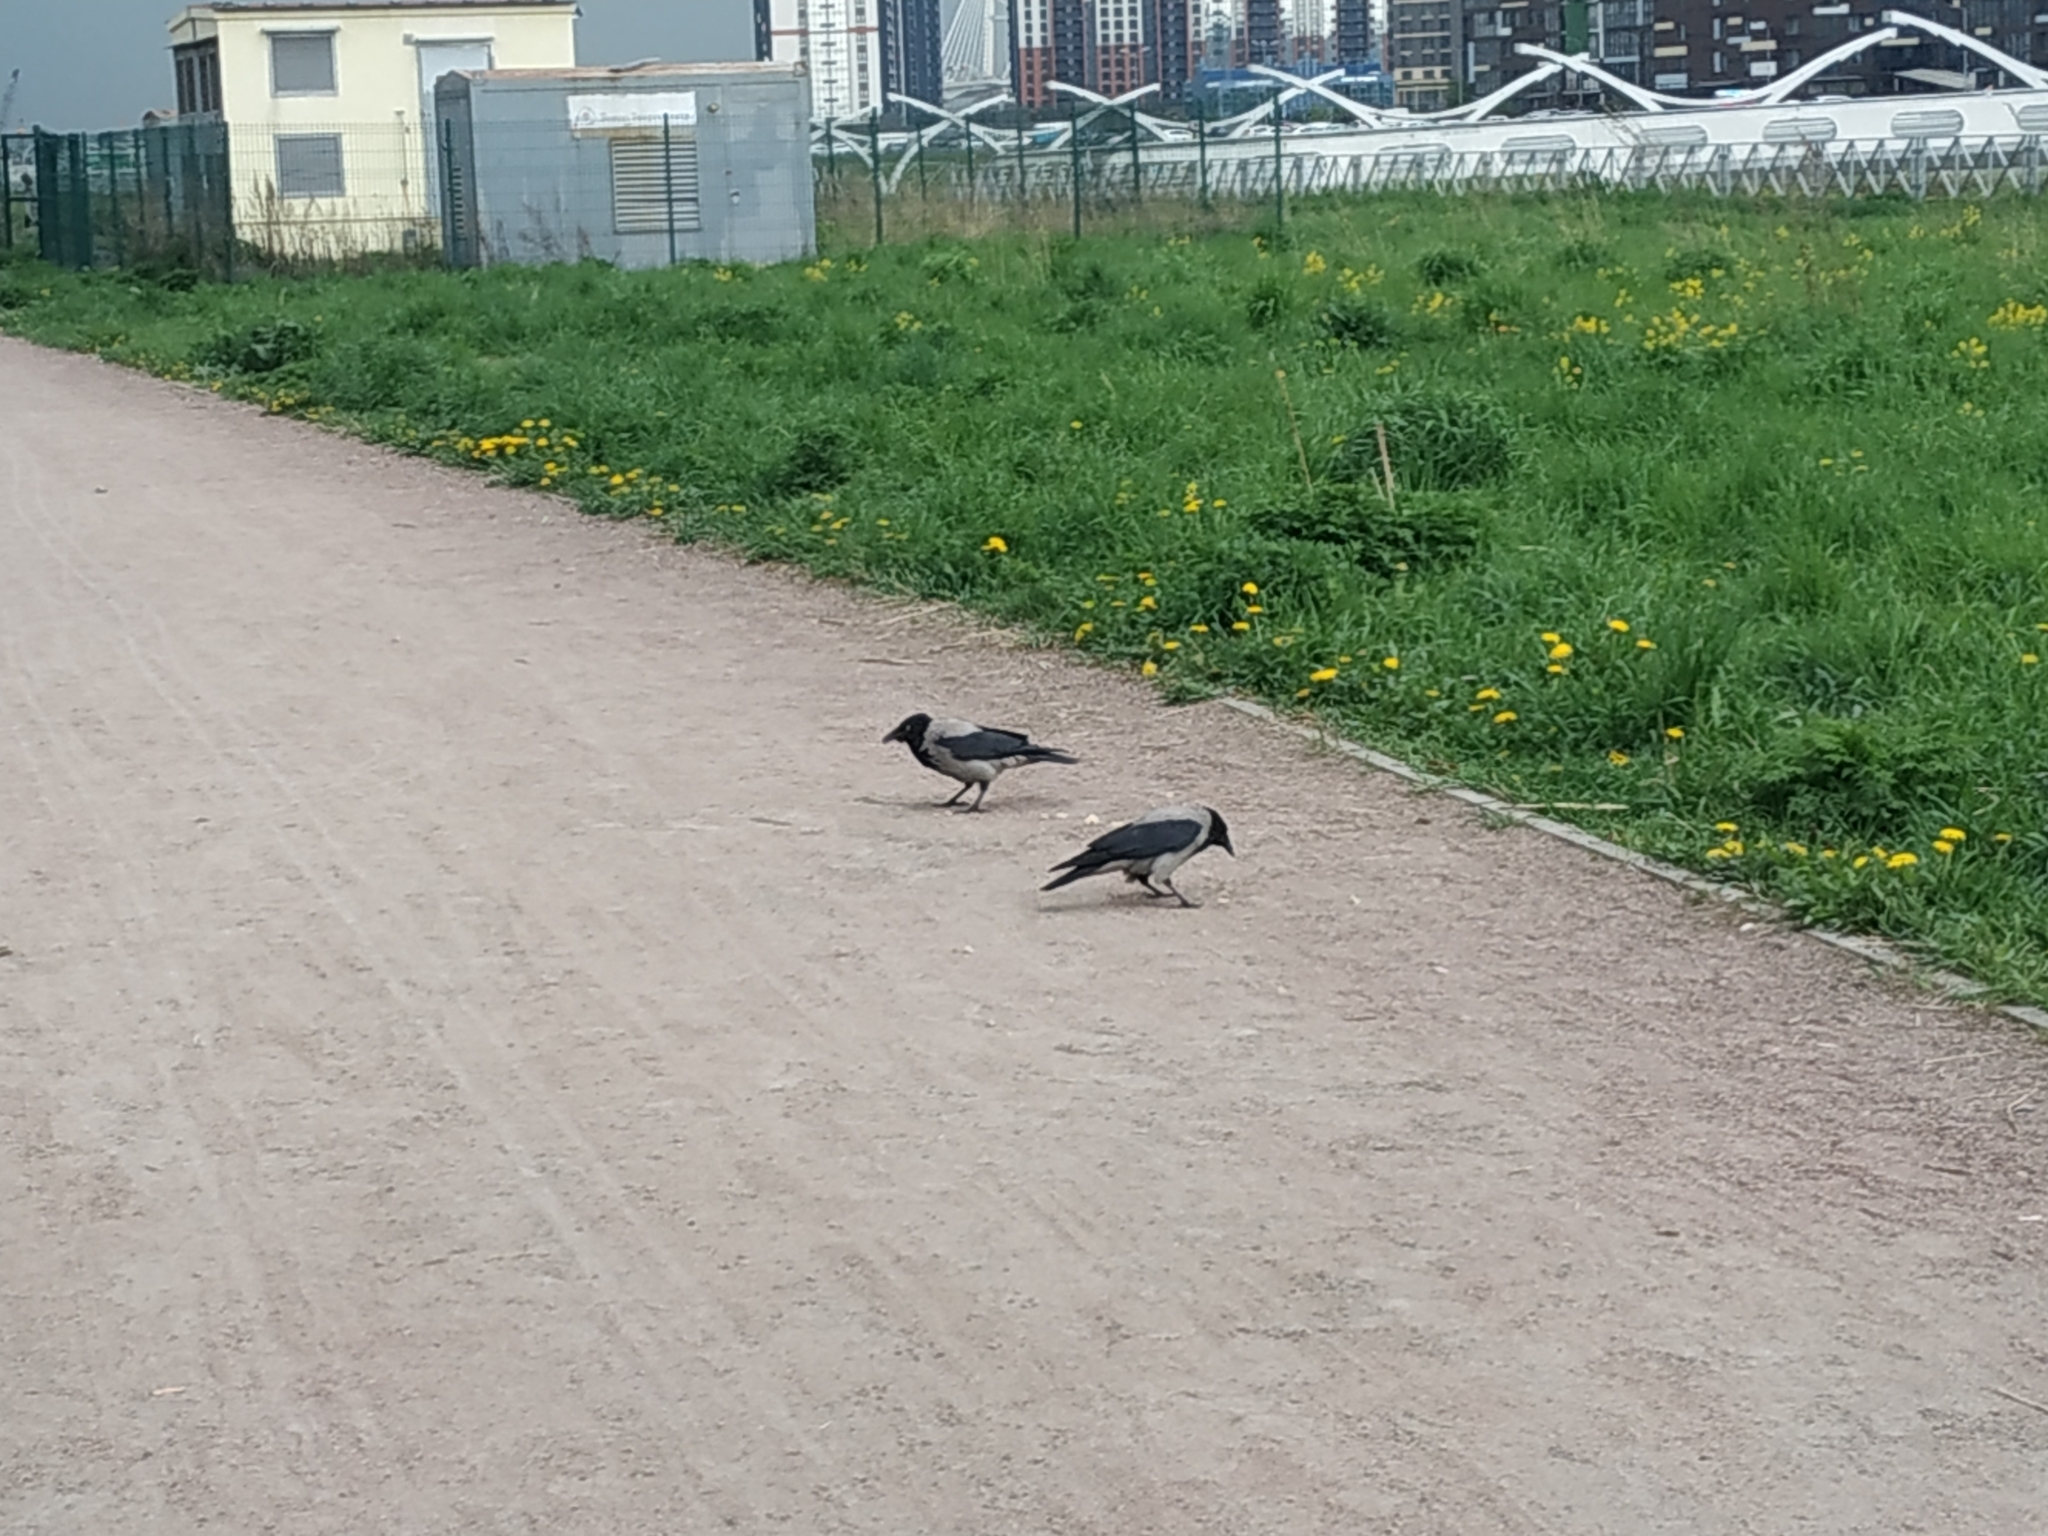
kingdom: Animalia
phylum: Chordata
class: Aves
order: Passeriformes
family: Corvidae
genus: Corvus
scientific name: Corvus cornix
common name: Hooded crow
